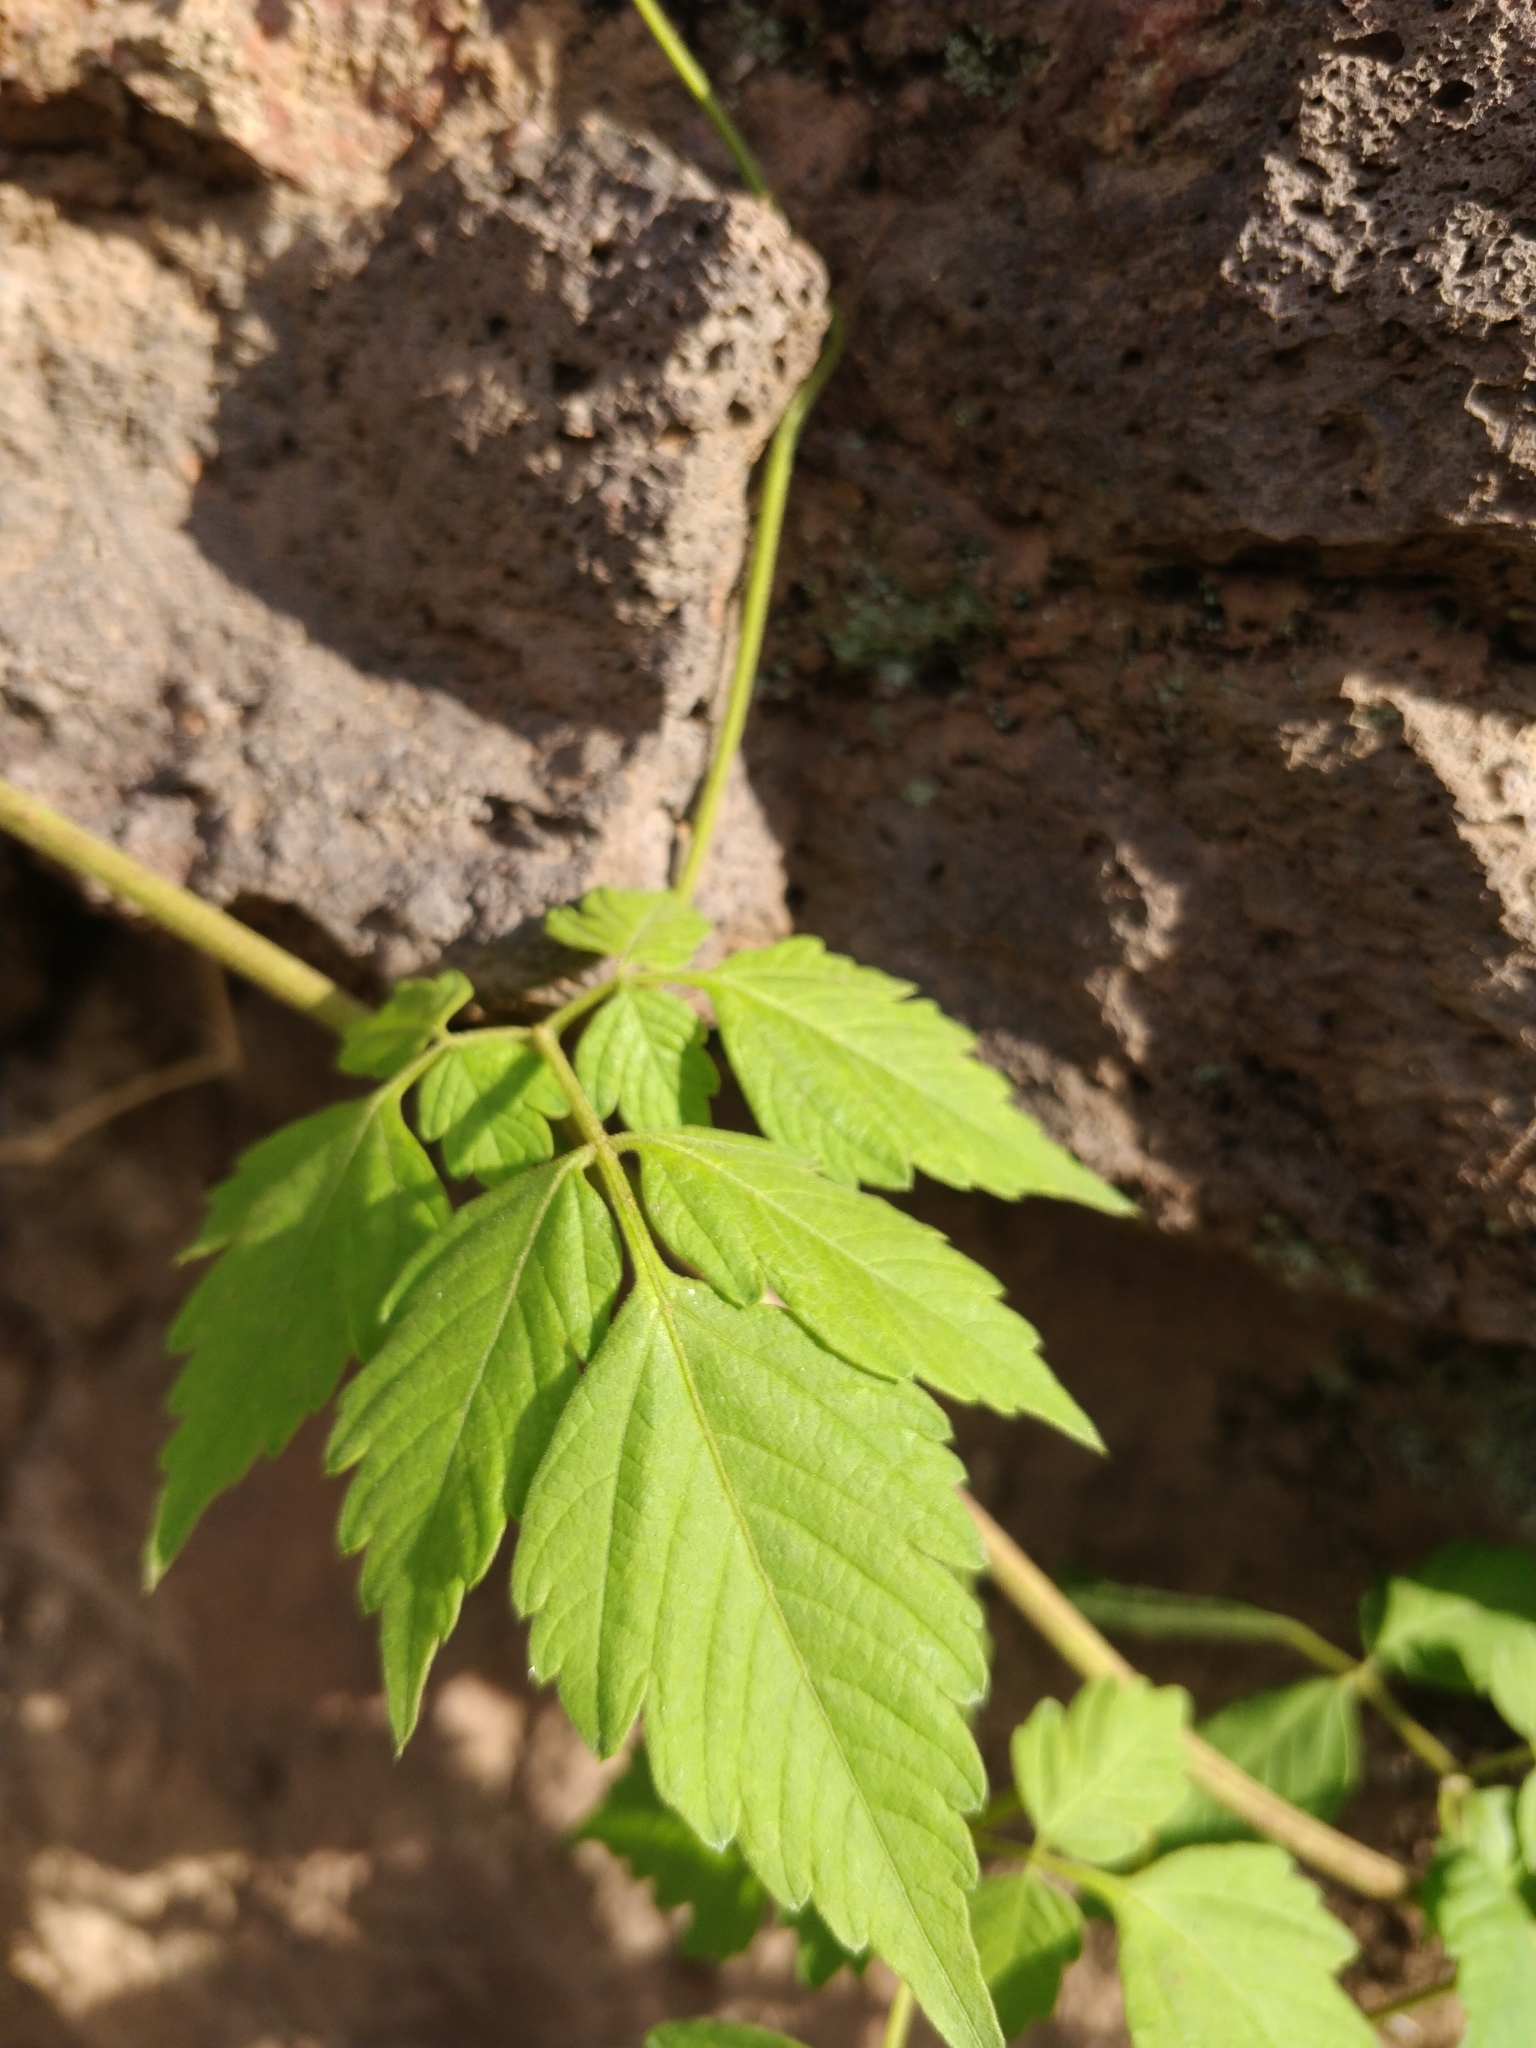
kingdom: Plantae
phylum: Tracheophyta
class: Magnoliopsida
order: Sapindales
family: Sapindaceae
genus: Cardiospermum
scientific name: Cardiospermum grandiflorum
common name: Balloon vine
